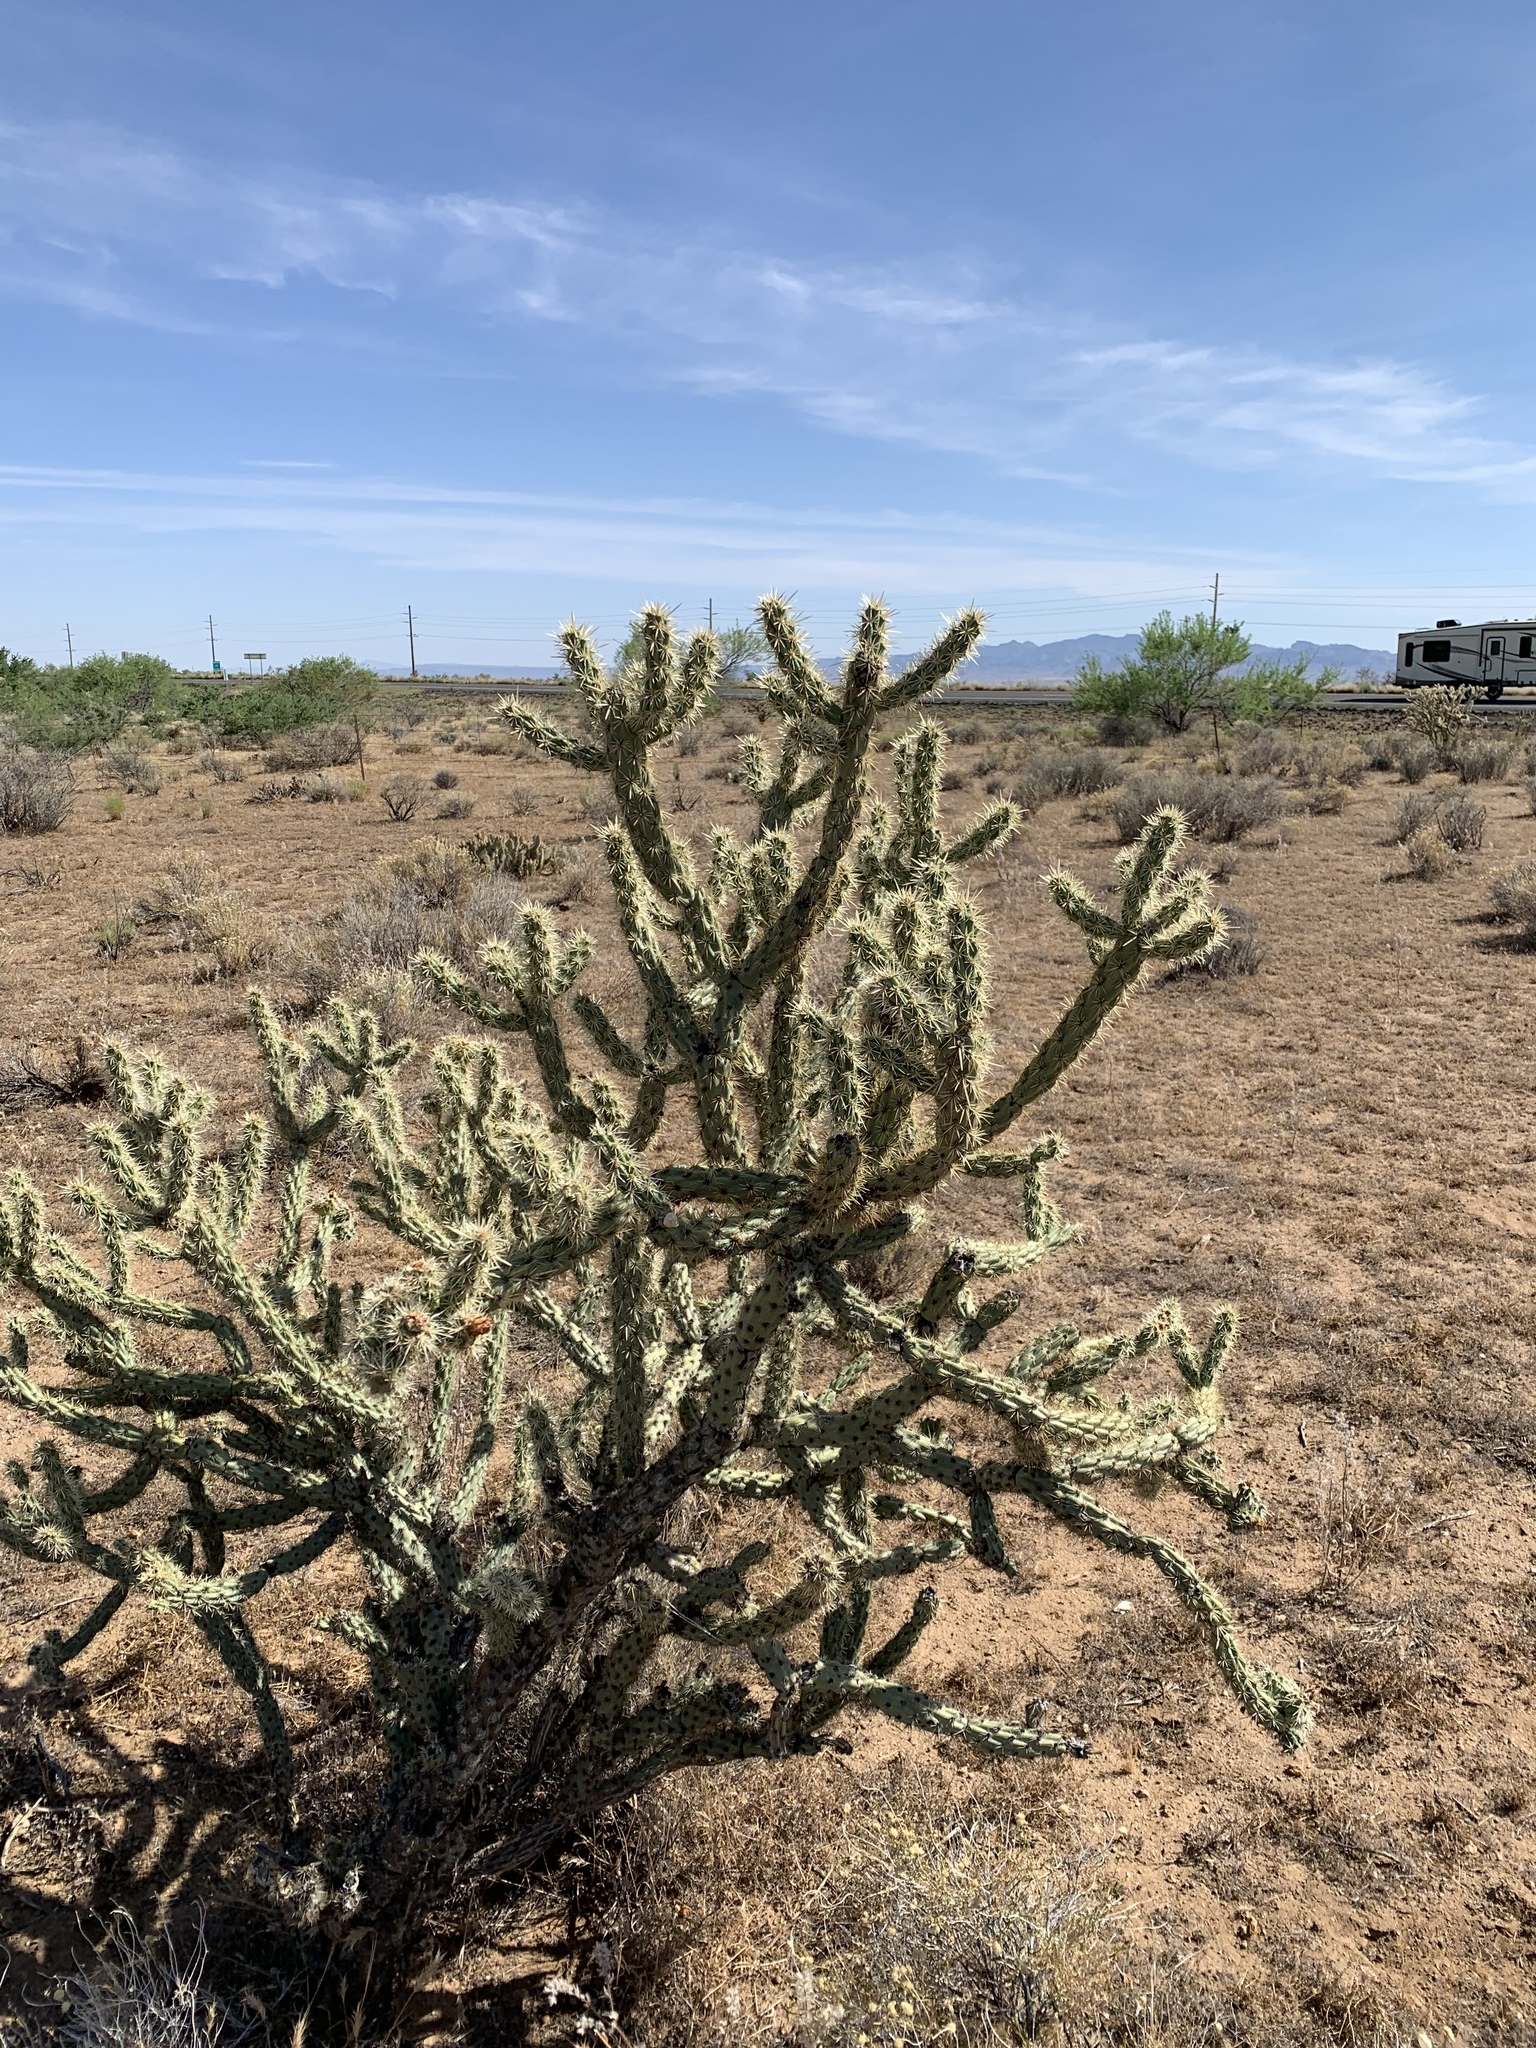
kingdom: Plantae
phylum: Tracheophyta
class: Magnoliopsida
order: Caryophyllales
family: Cactaceae
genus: Cylindropuntia
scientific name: Cylindropuntia acanthocarpa
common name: Buckhorn cholla
